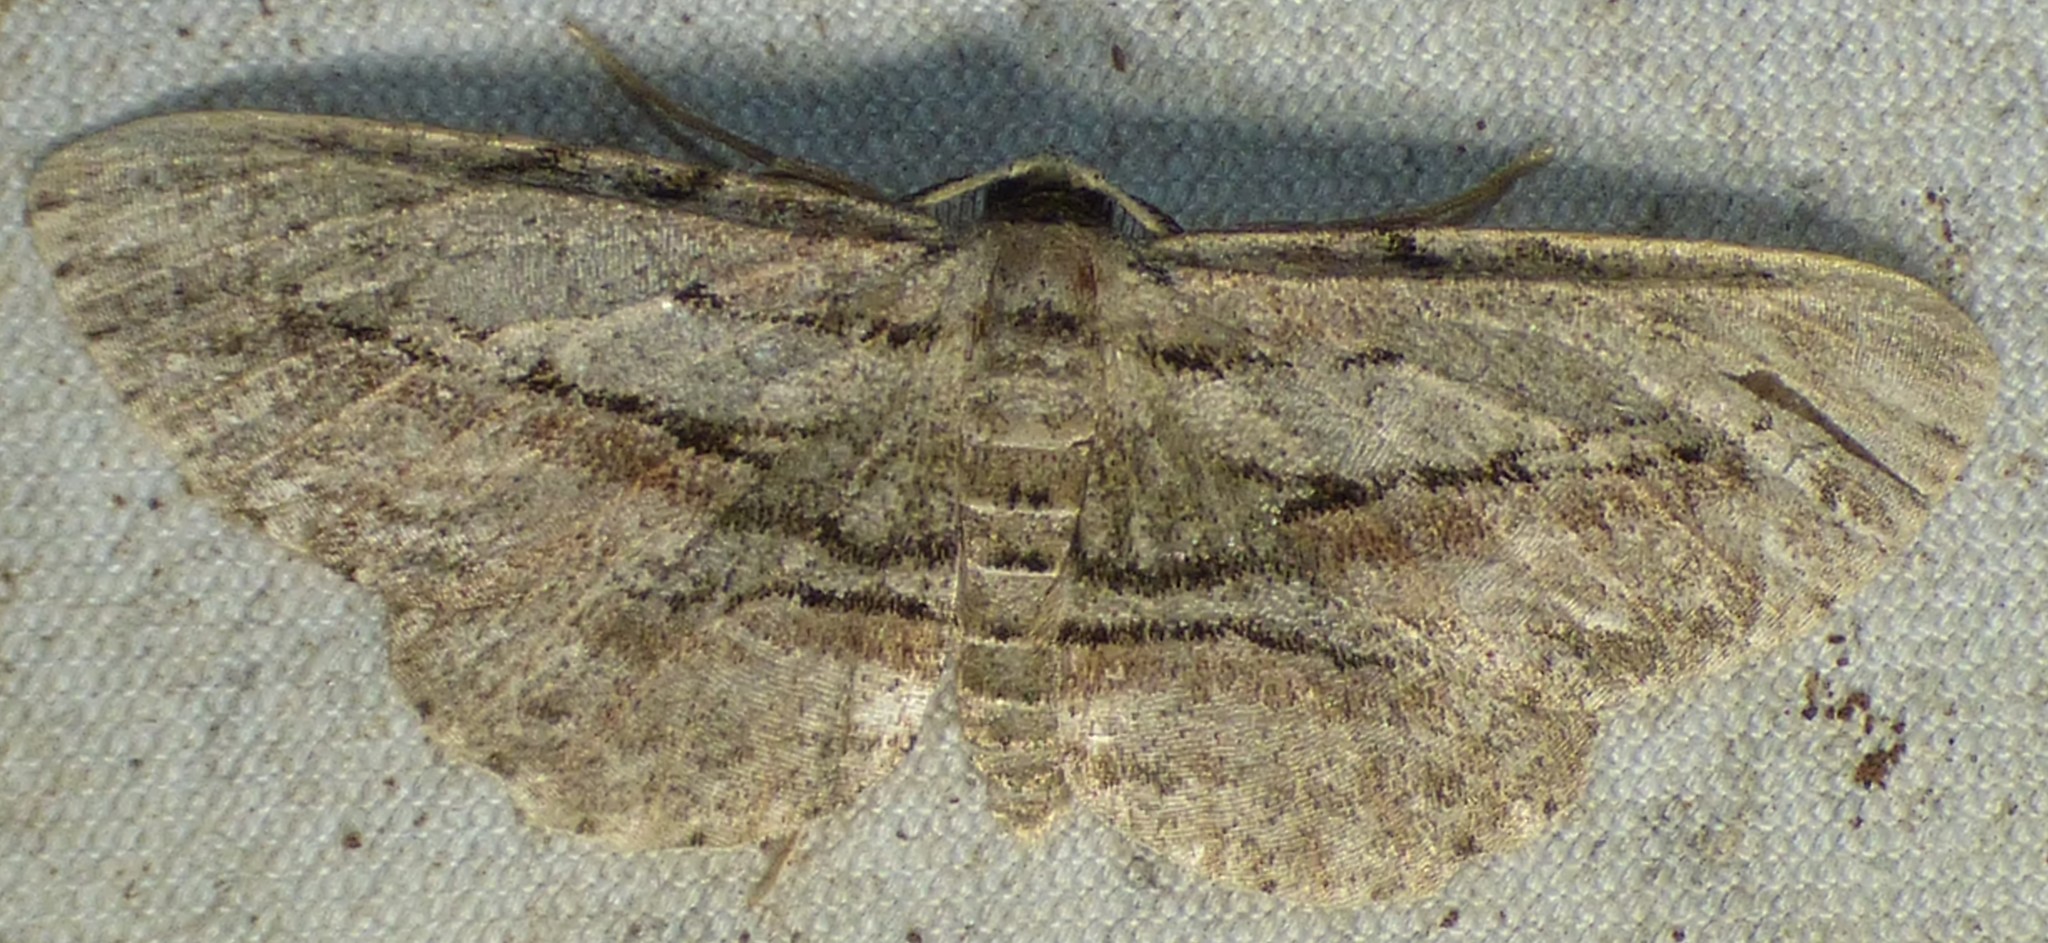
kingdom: Animalia
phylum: Arthropoda
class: Insecta
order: Lepidoptera
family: Geometridae
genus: Glena
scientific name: Glena plumosaria
